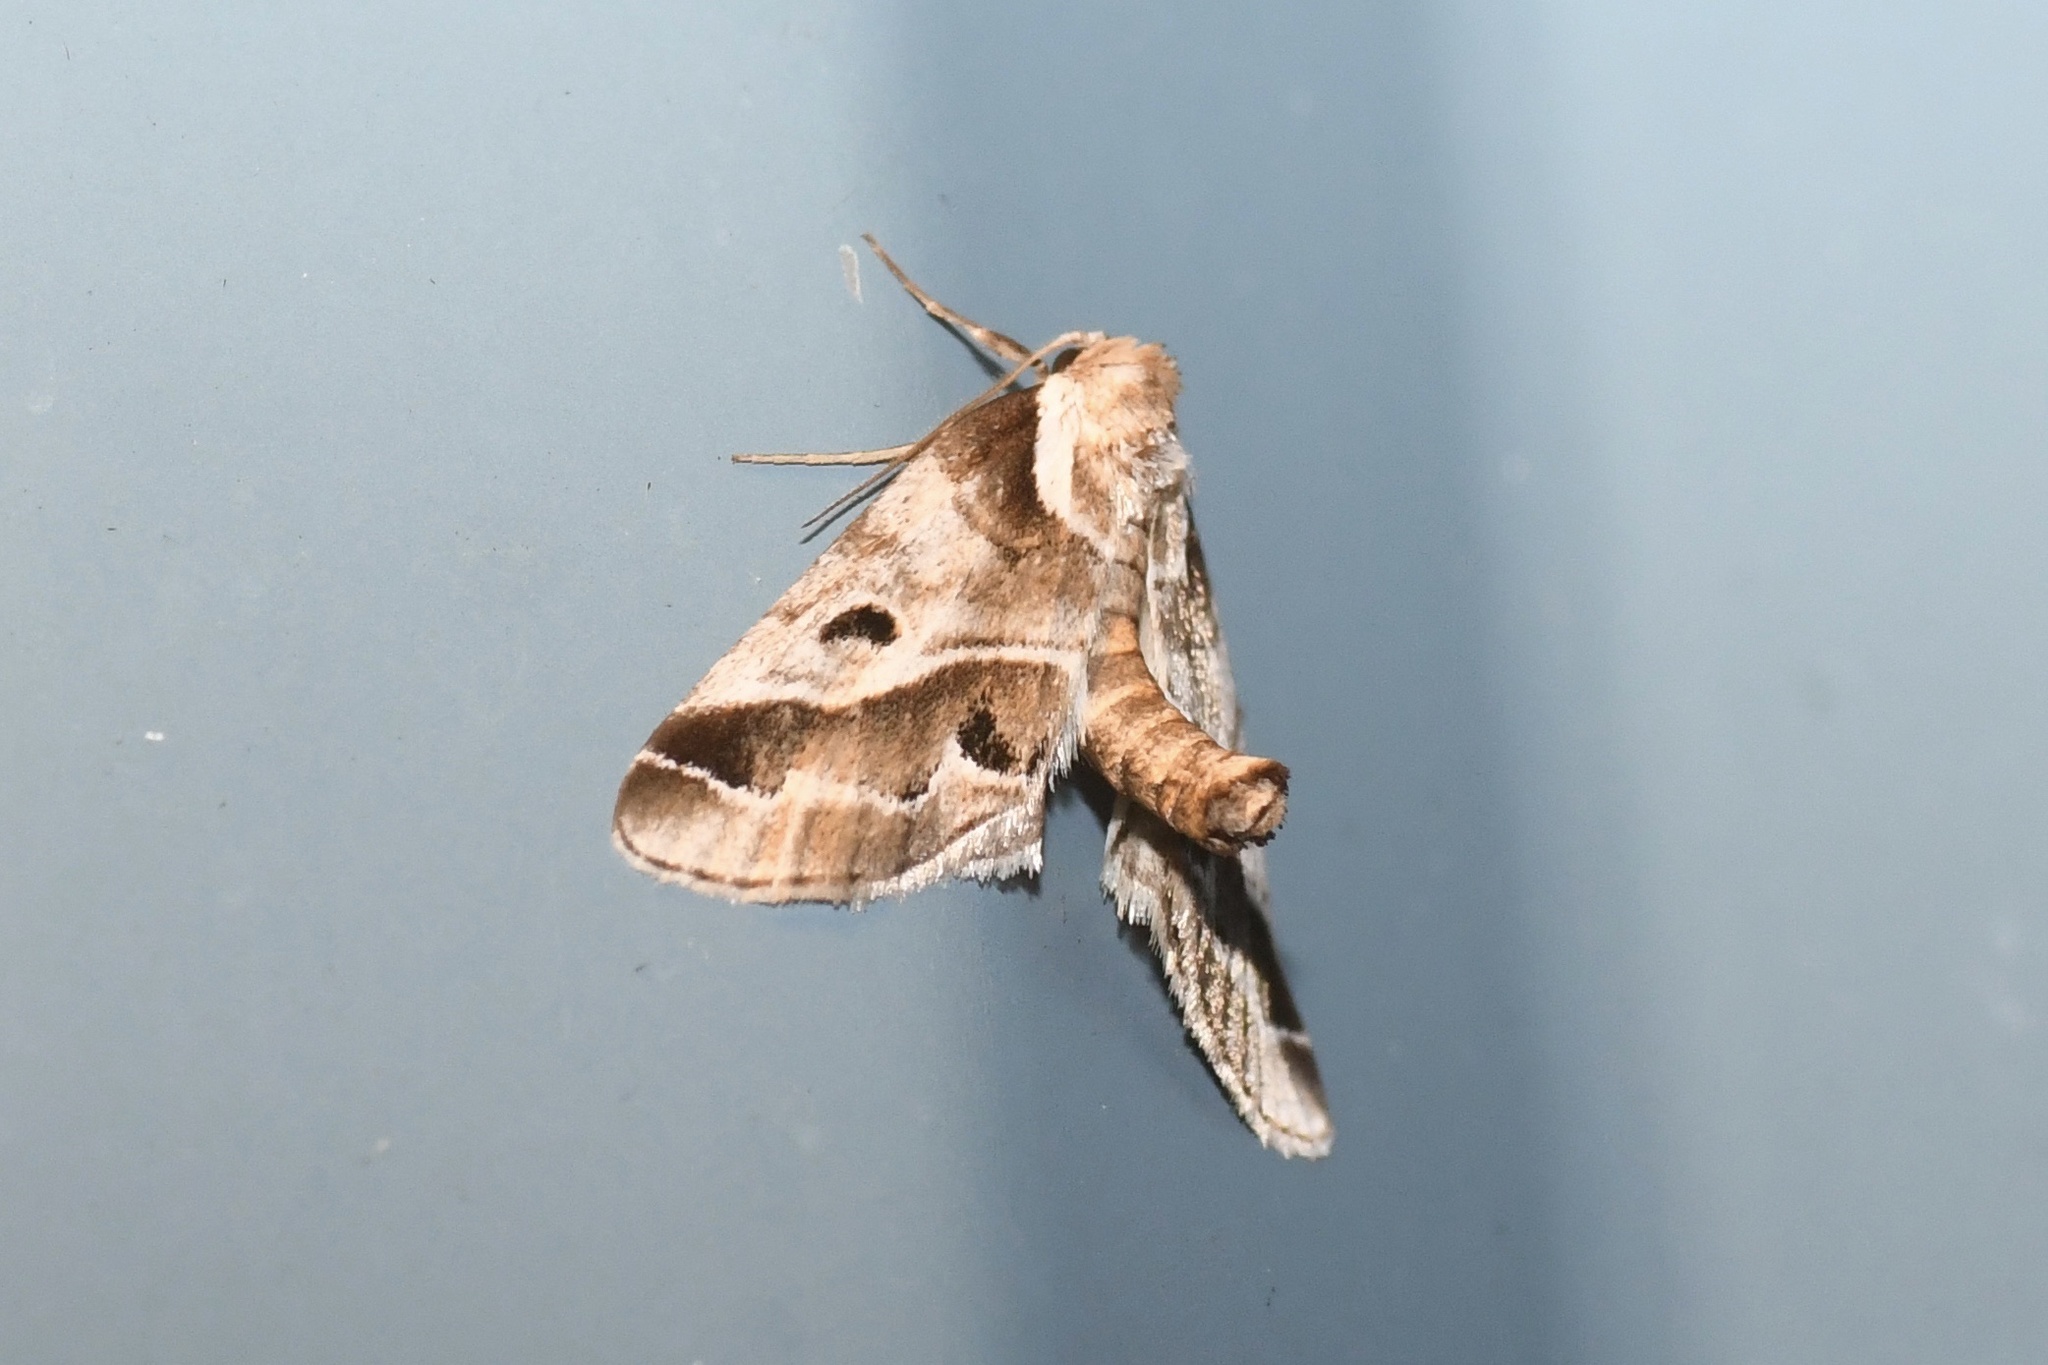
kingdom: Animalia
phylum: Arthropoda
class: Insecta
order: Lepidoptera
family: Nolidae
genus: Baileya
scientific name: Baileya doubledayi
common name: Doubleday's baileya moth
